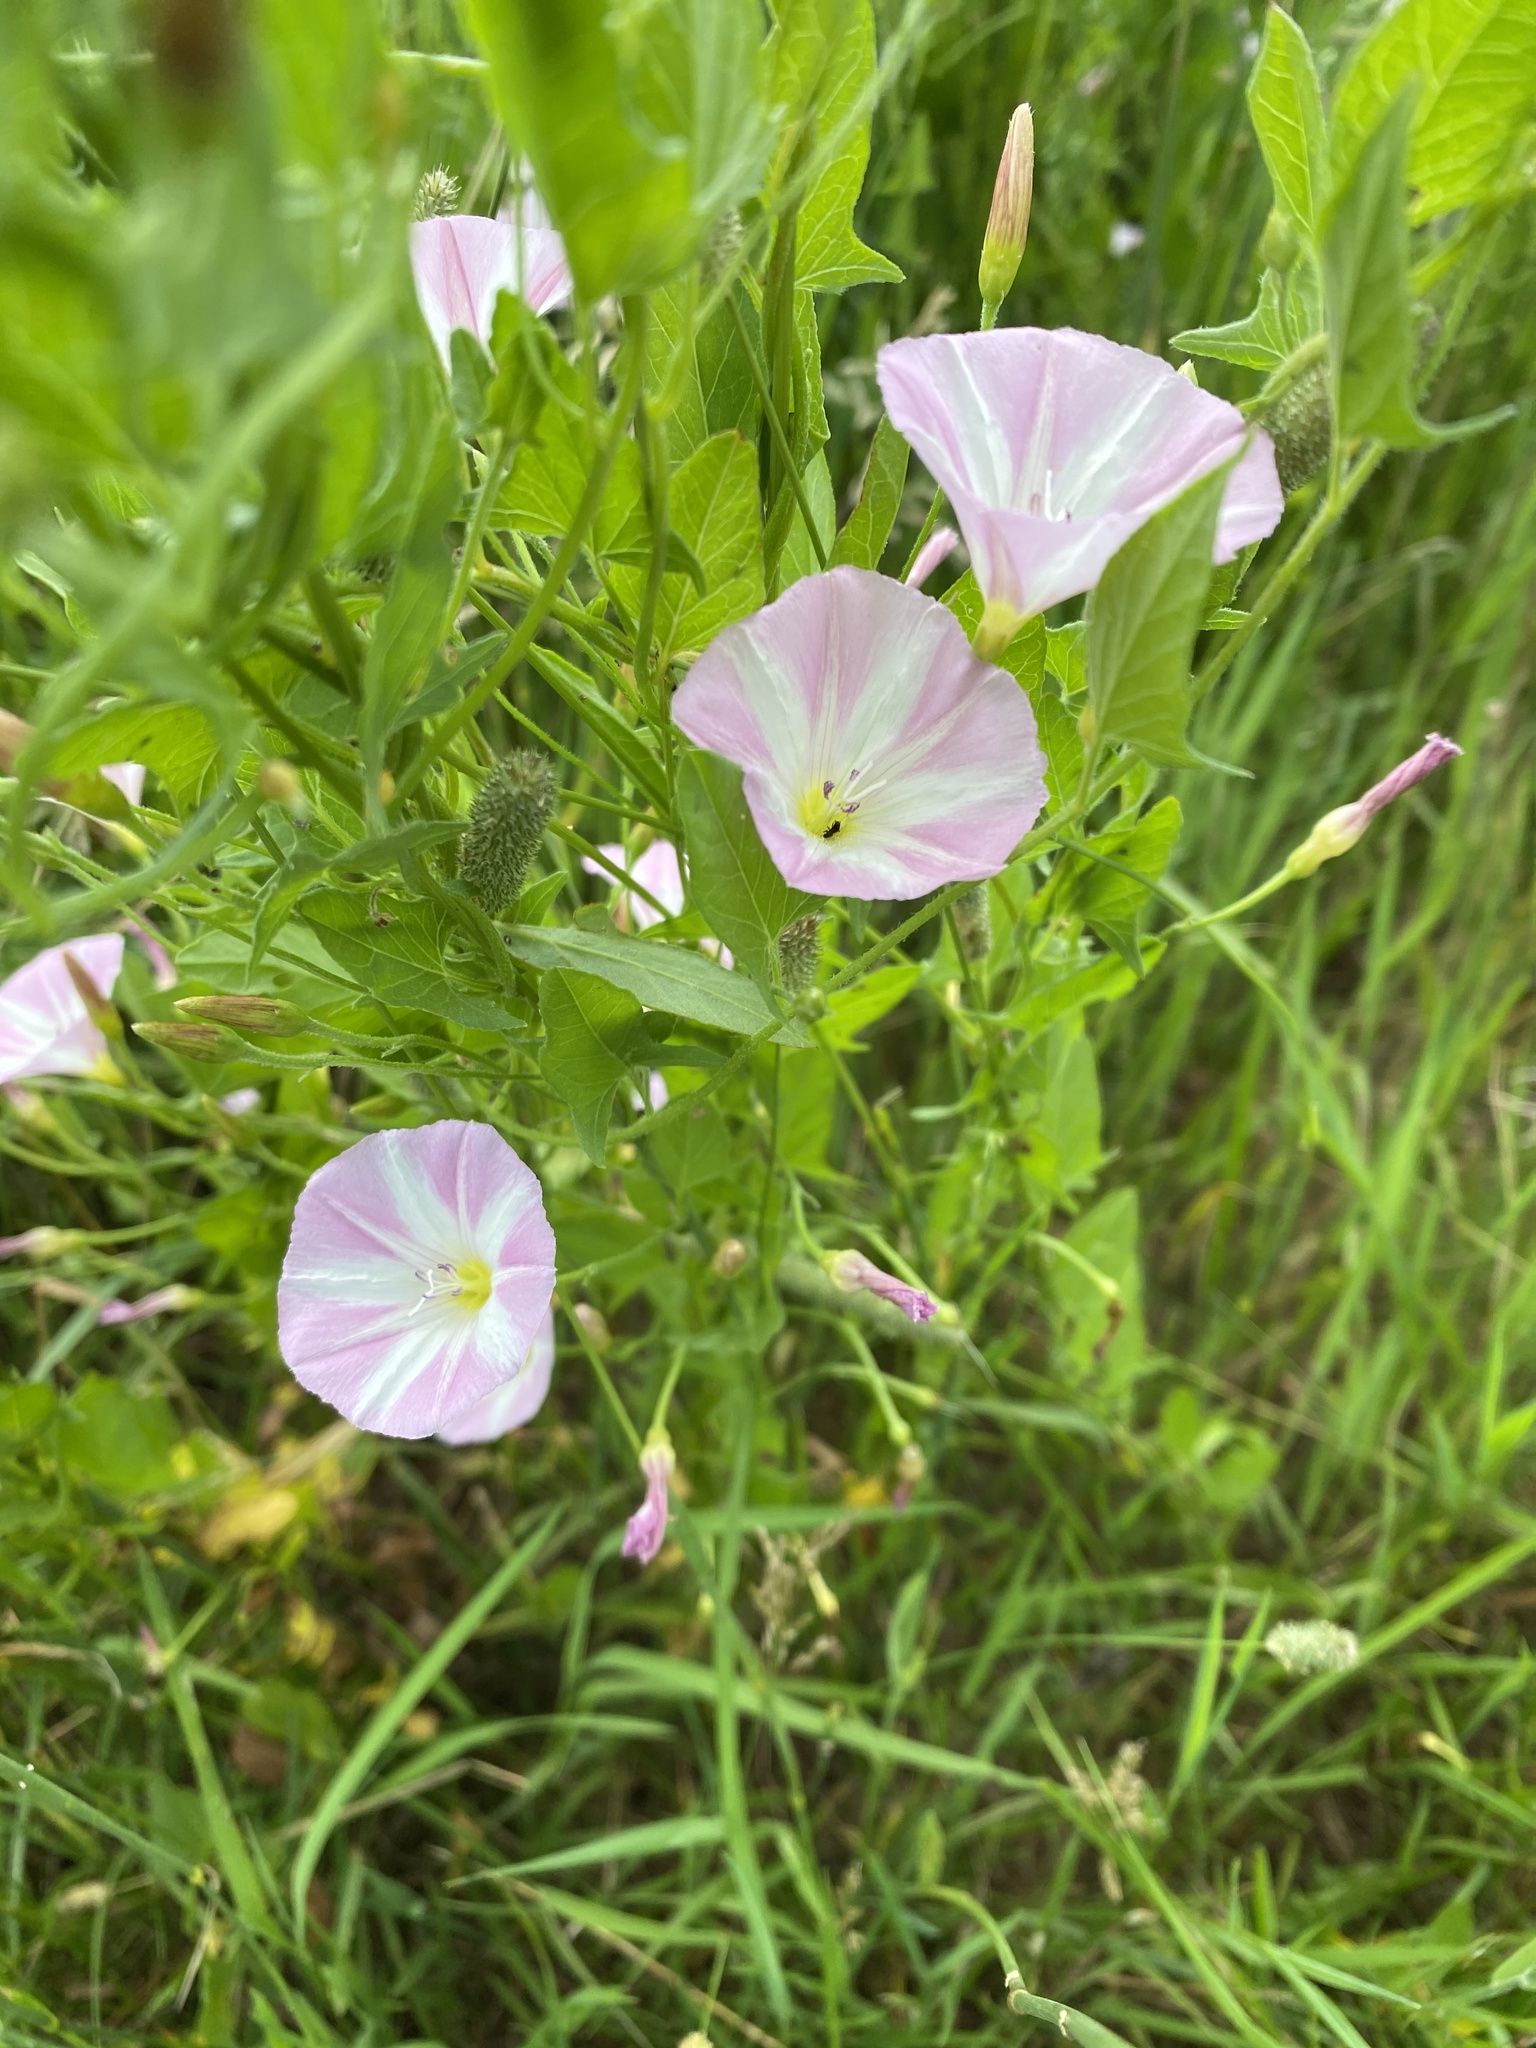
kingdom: Plantae
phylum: Tracheophyta
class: Magnoliopsida
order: Solanales
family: Convolvulaceae
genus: Convolvulus
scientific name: Convolvulus arvensis
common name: Field bindweed
